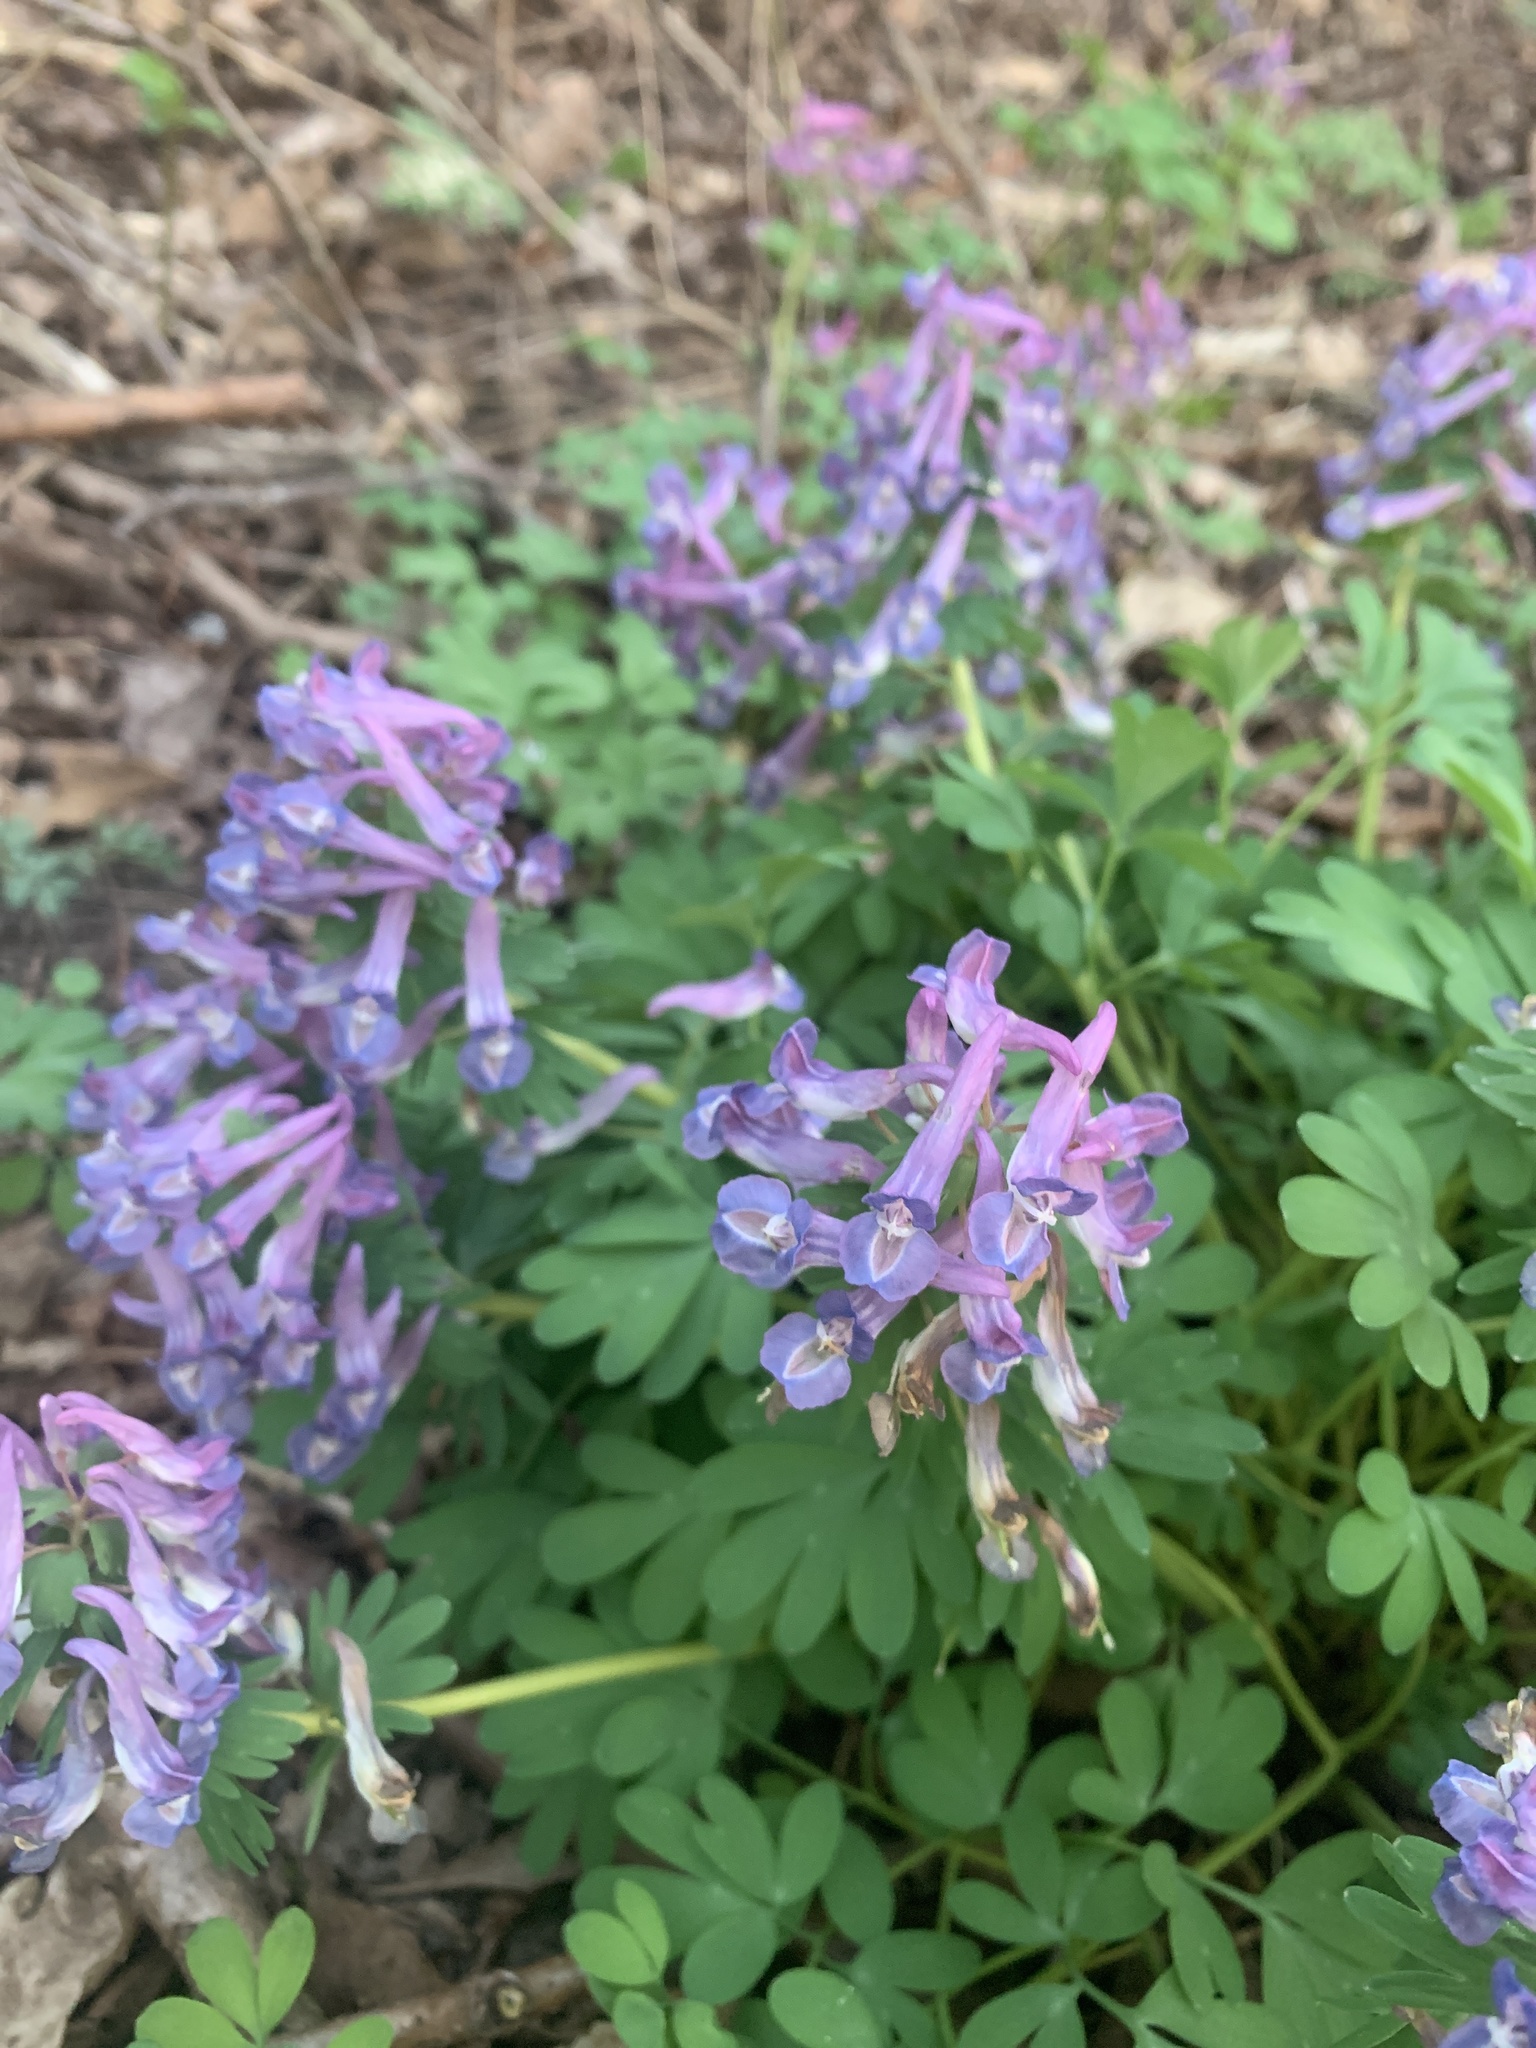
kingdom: Plantae
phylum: Tracheophyta
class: Magnoliopsida
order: Ranunculales
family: Papaveraceae
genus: Corydalis
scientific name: Corydalis solida
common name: Bird-in-a-bush
